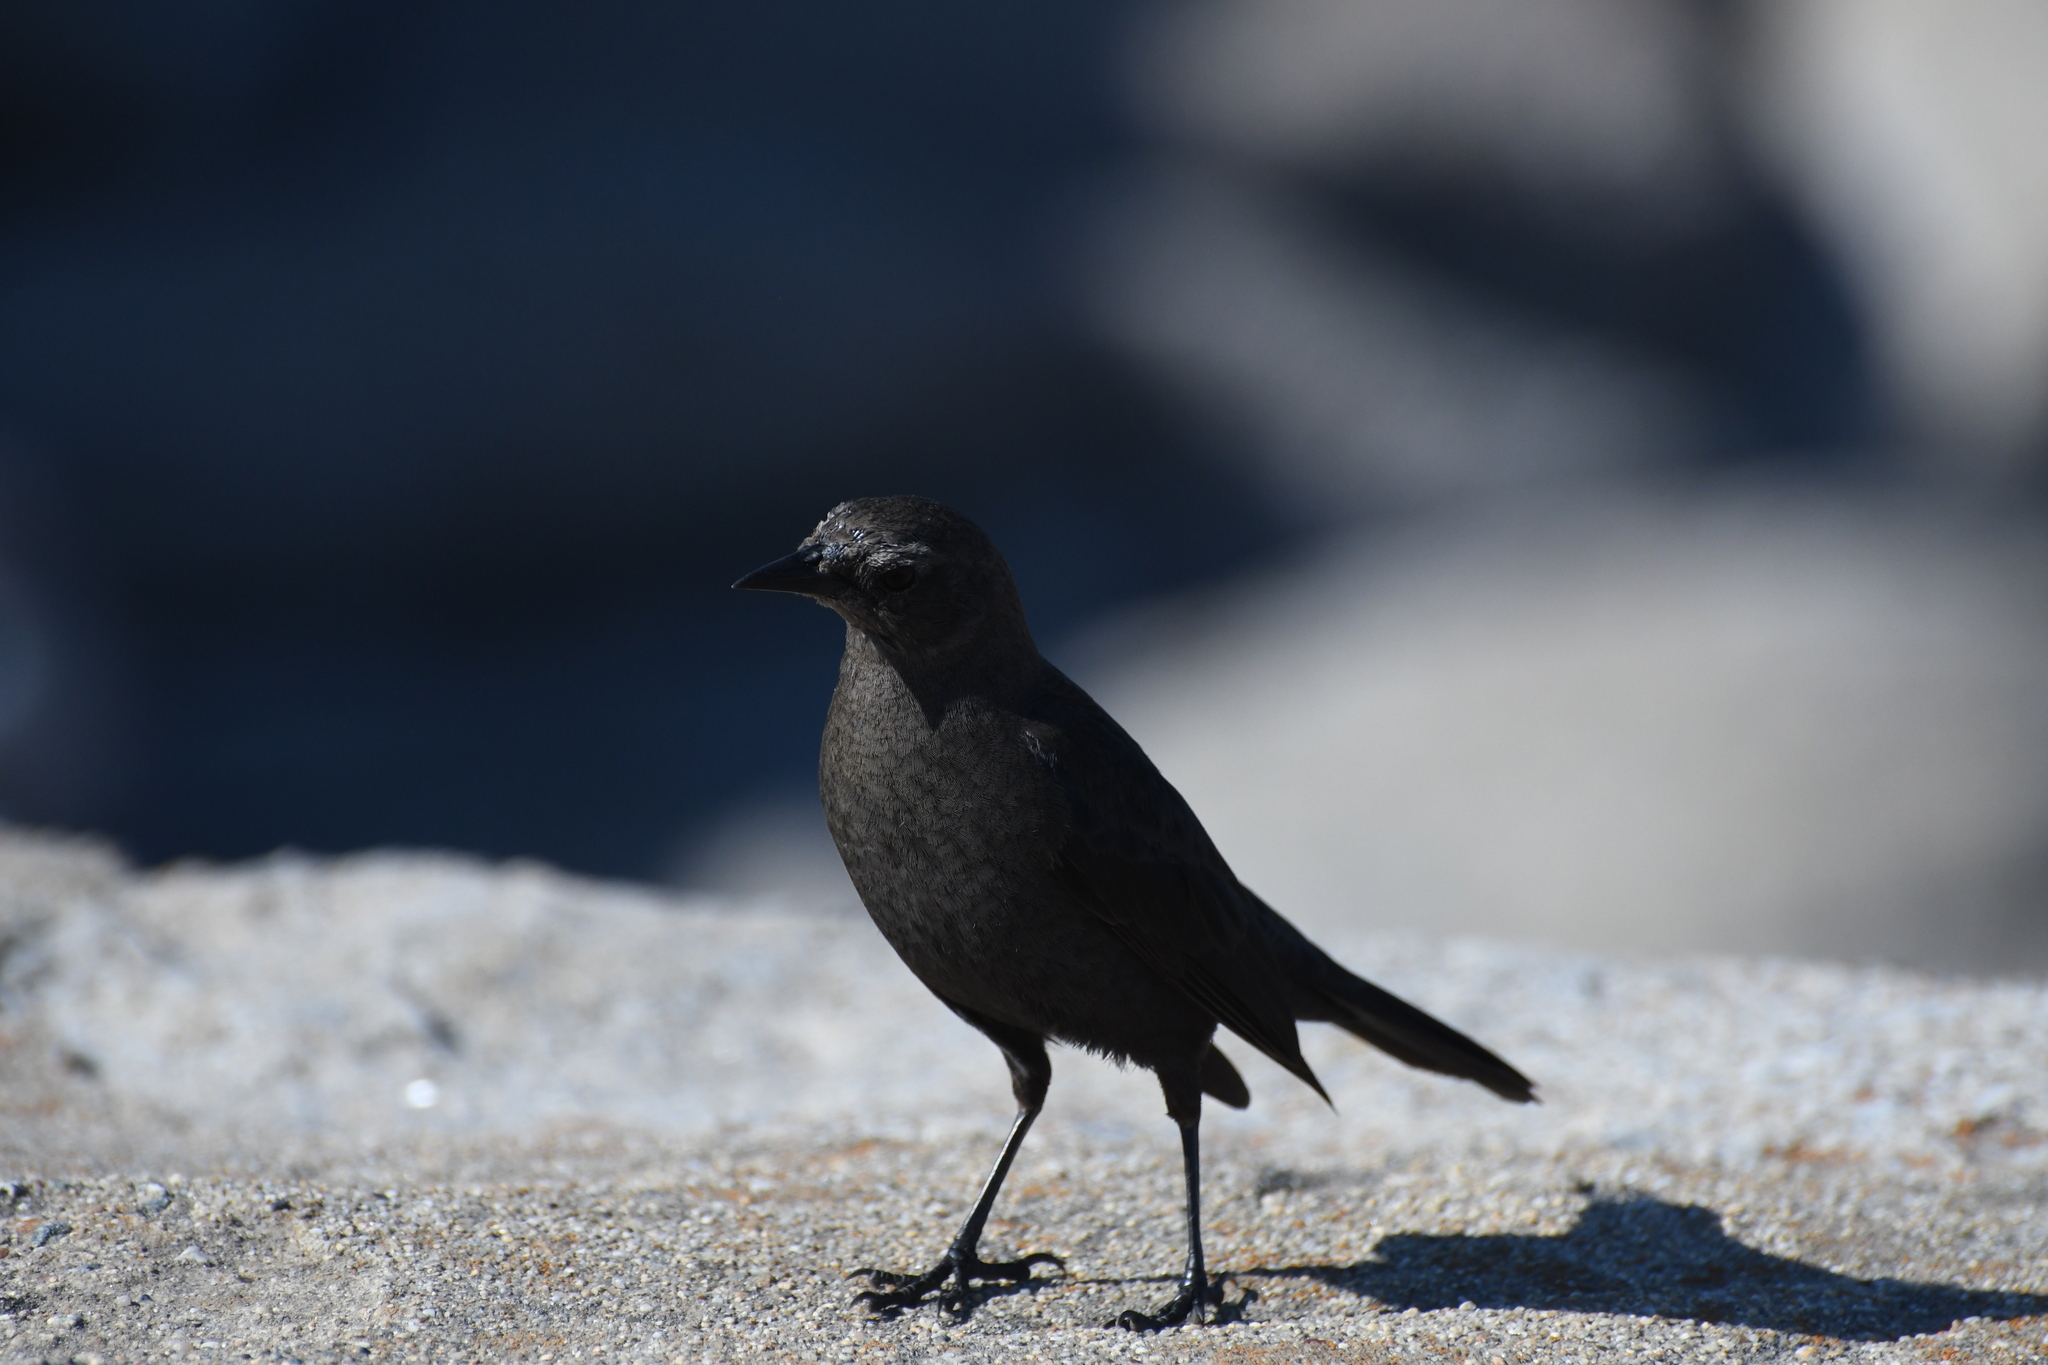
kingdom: Animalia
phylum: Chordata
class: Aves
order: Passeriformes
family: Icteridae
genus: Euphagus
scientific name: Euphagus cyanocephalus
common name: Brewer's blackbird
